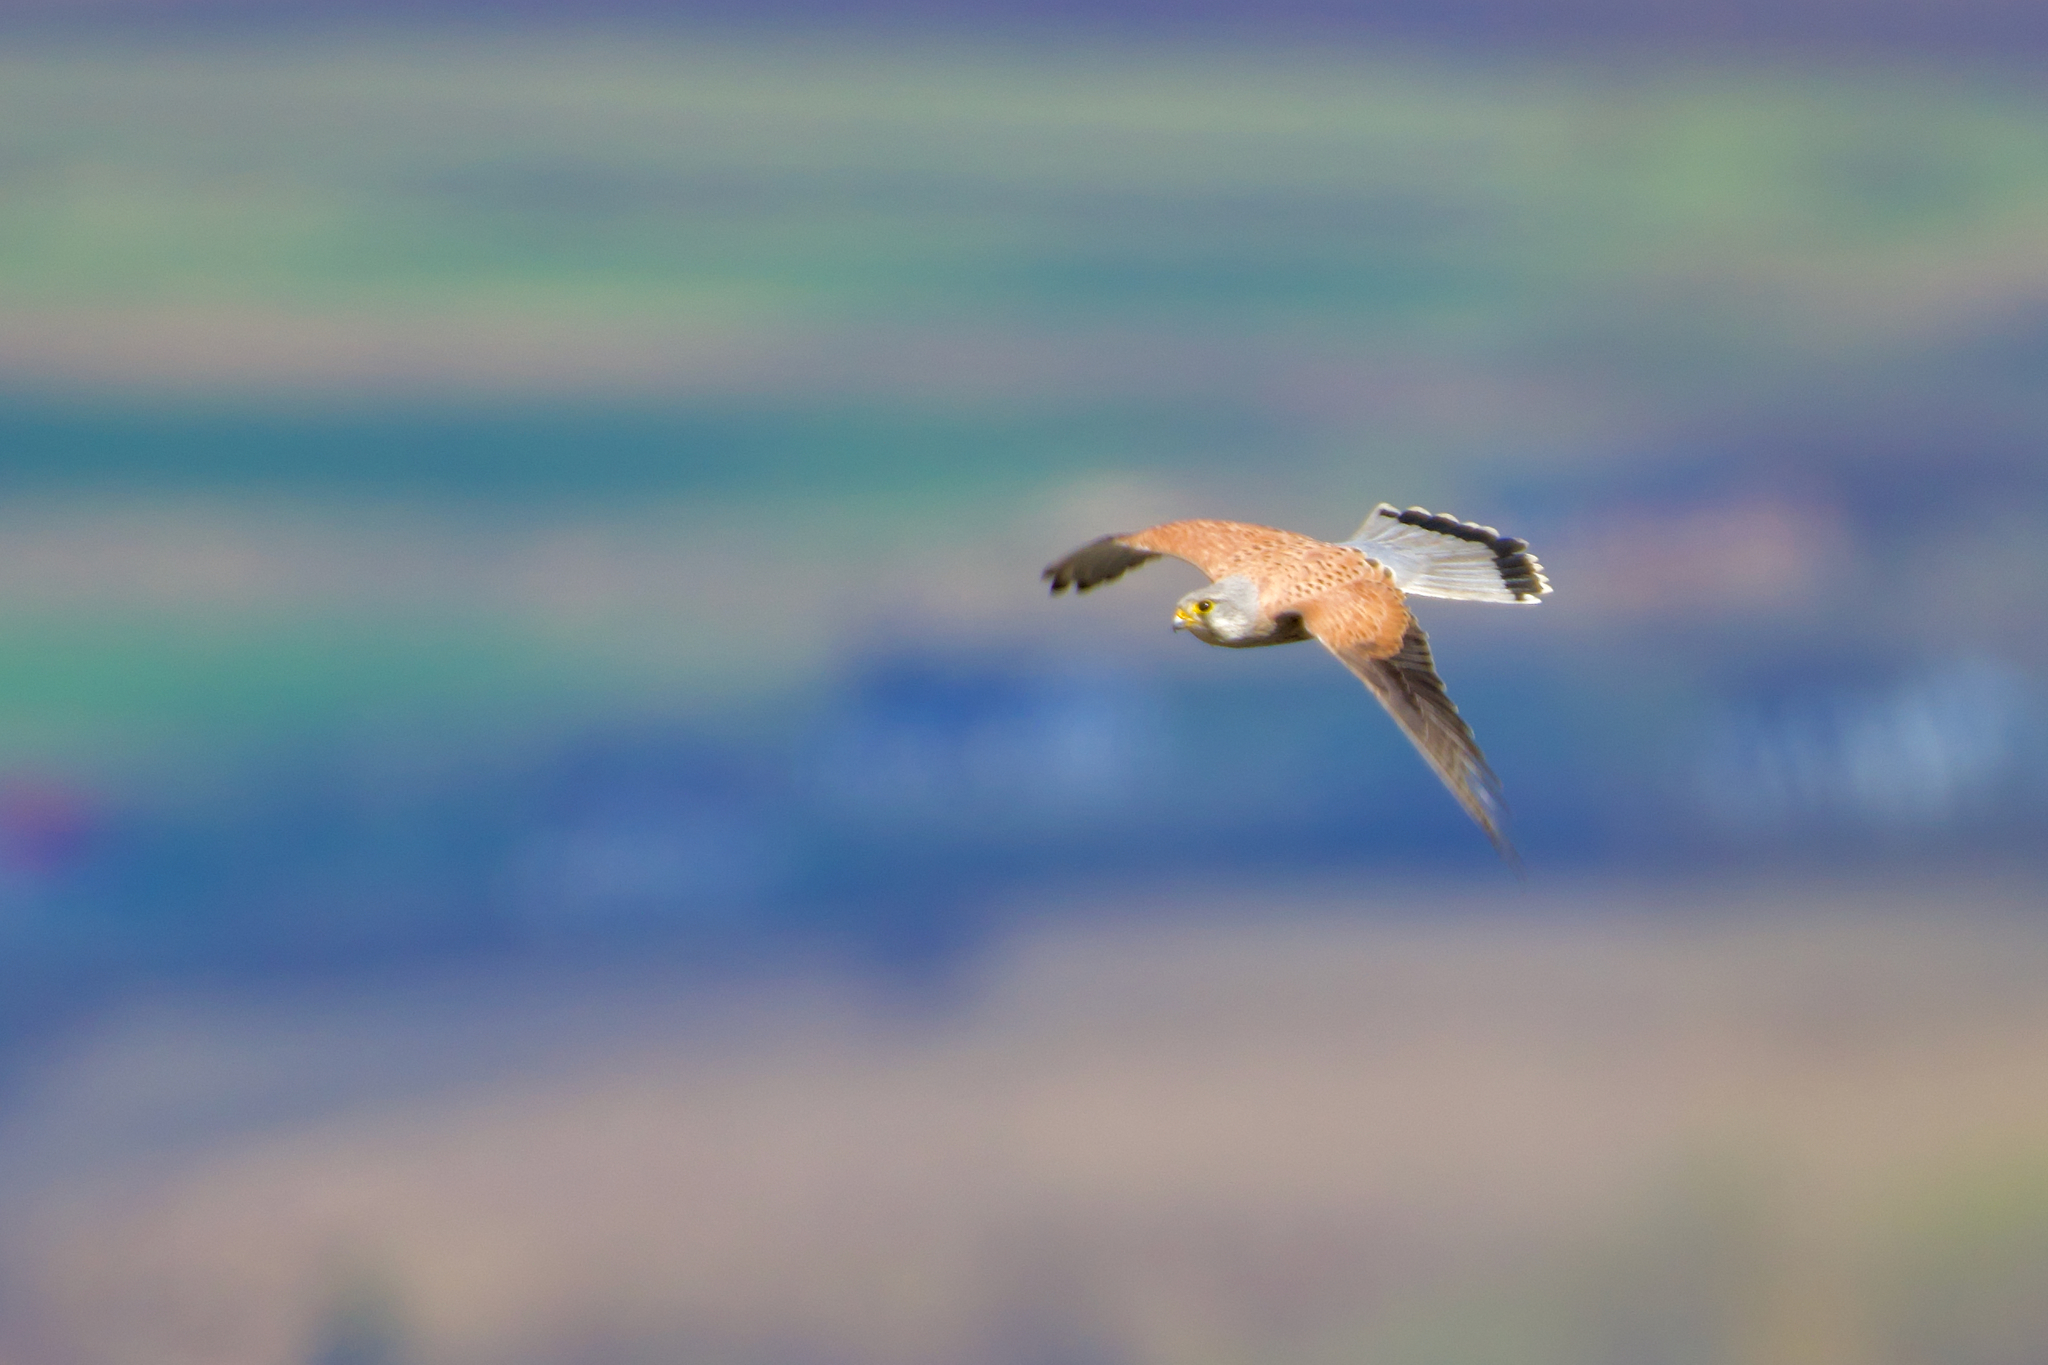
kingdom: Animalia
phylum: Chordata
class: Aves
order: Falconiformes
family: Falconidae
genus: Falco
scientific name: Falco tinnunculus
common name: Common kestrel
